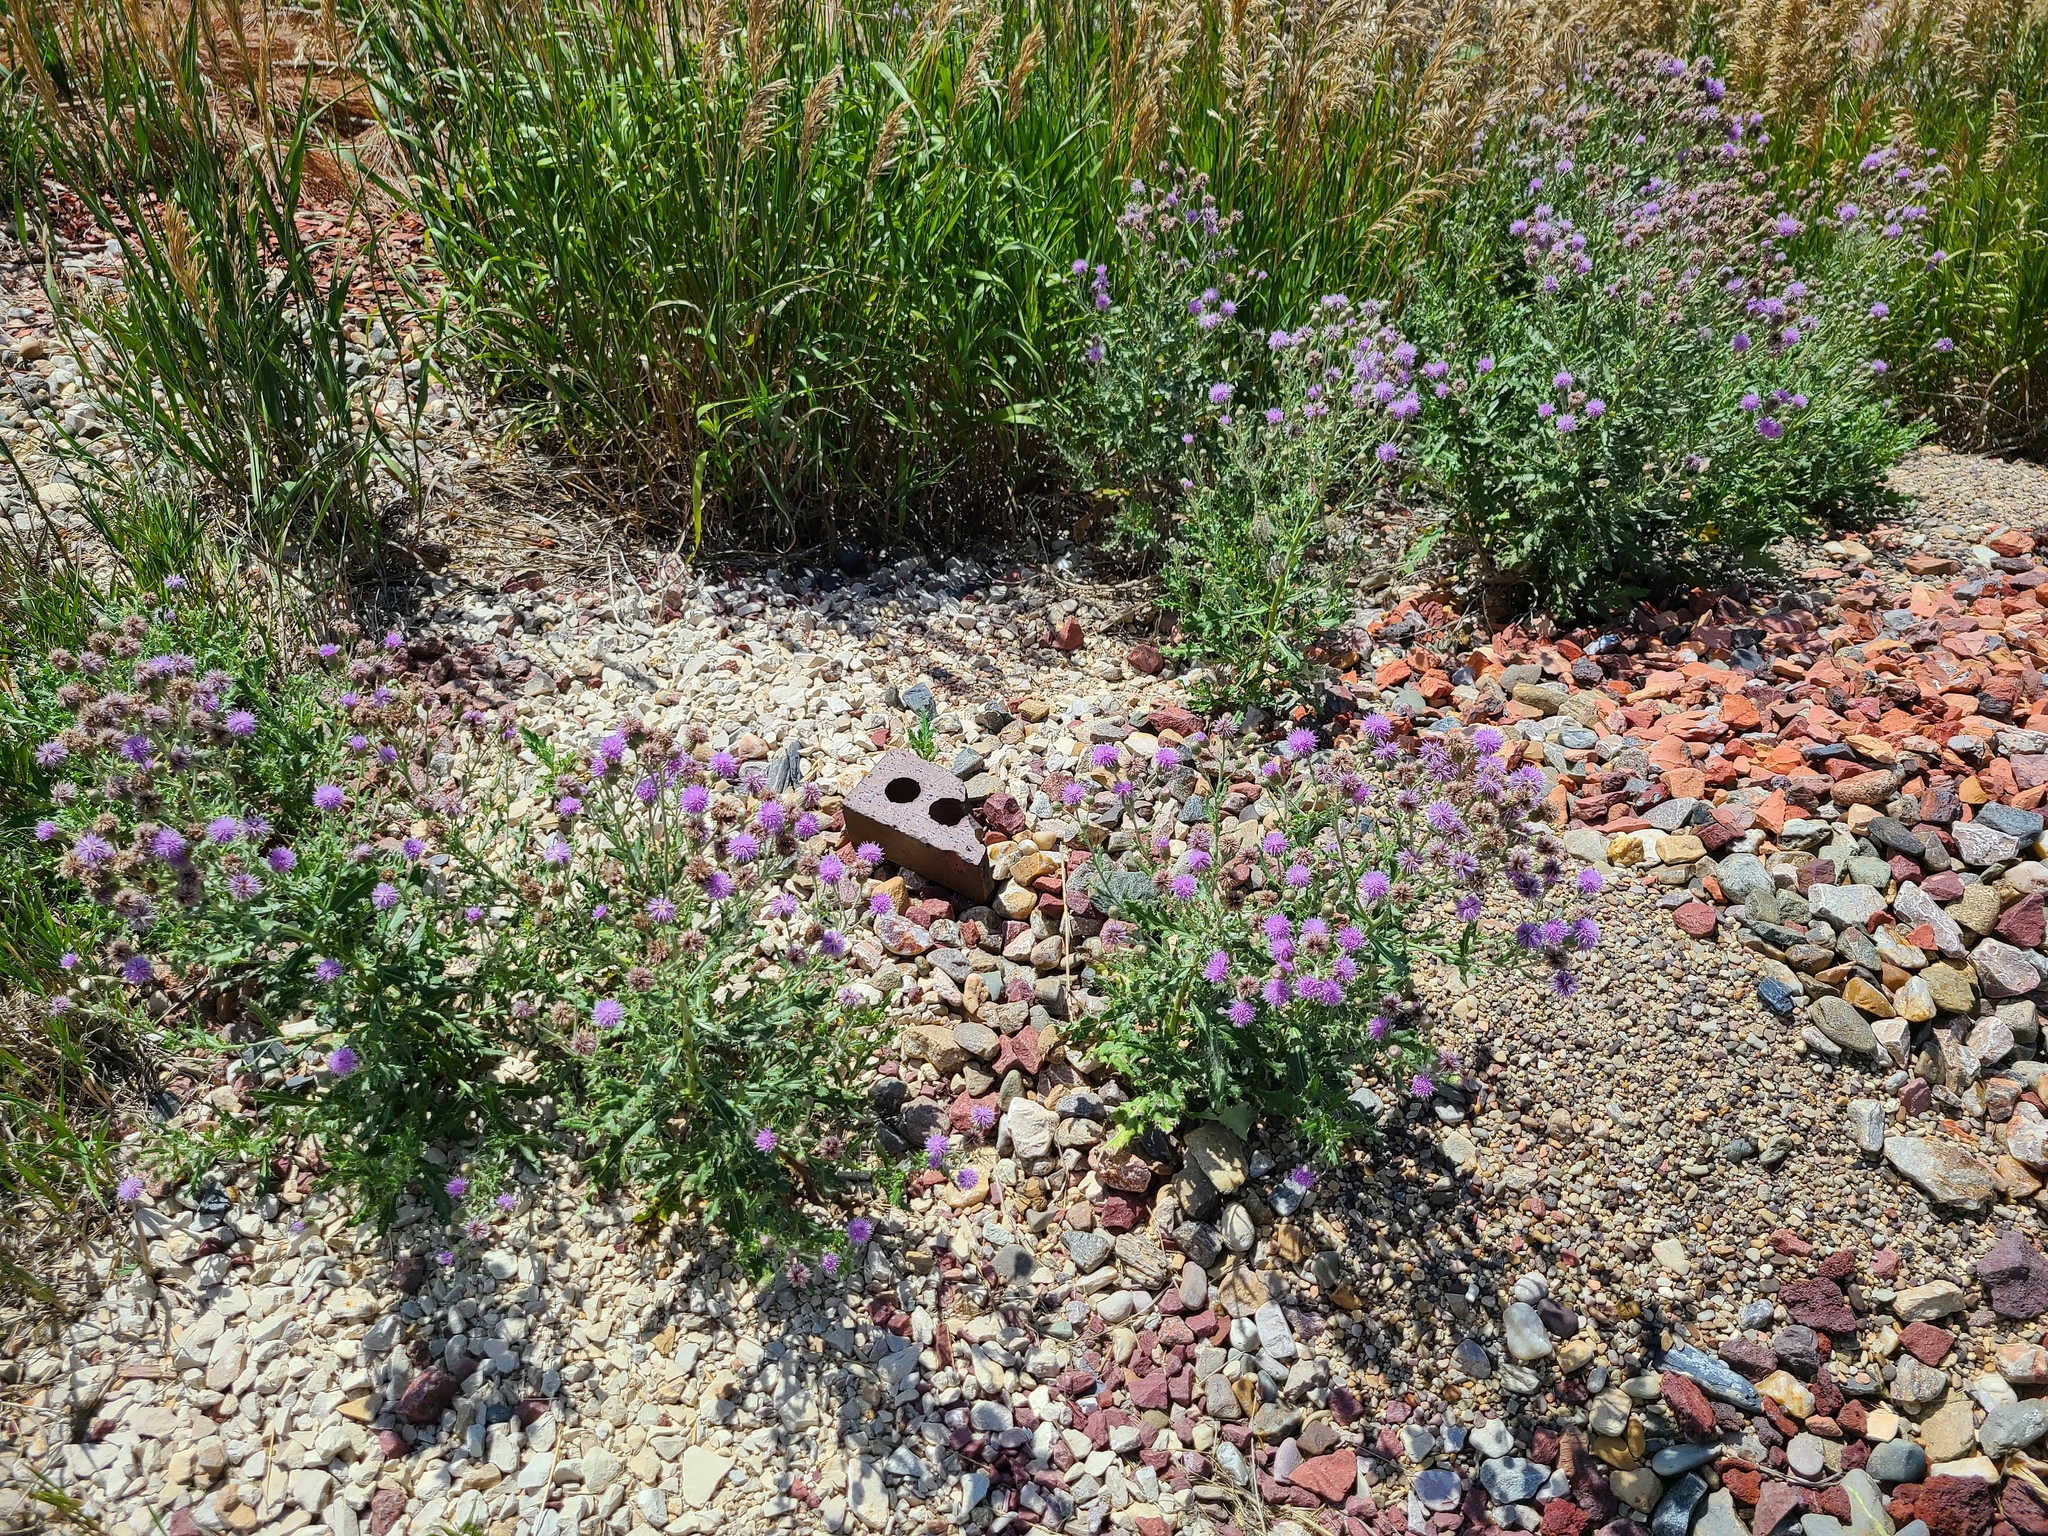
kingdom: Plantae
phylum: Tracheophyta
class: Magnoliopsida
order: Asterales
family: Asteraceae
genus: Cirsium
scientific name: Cirsium arvense
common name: Creeping thistle
